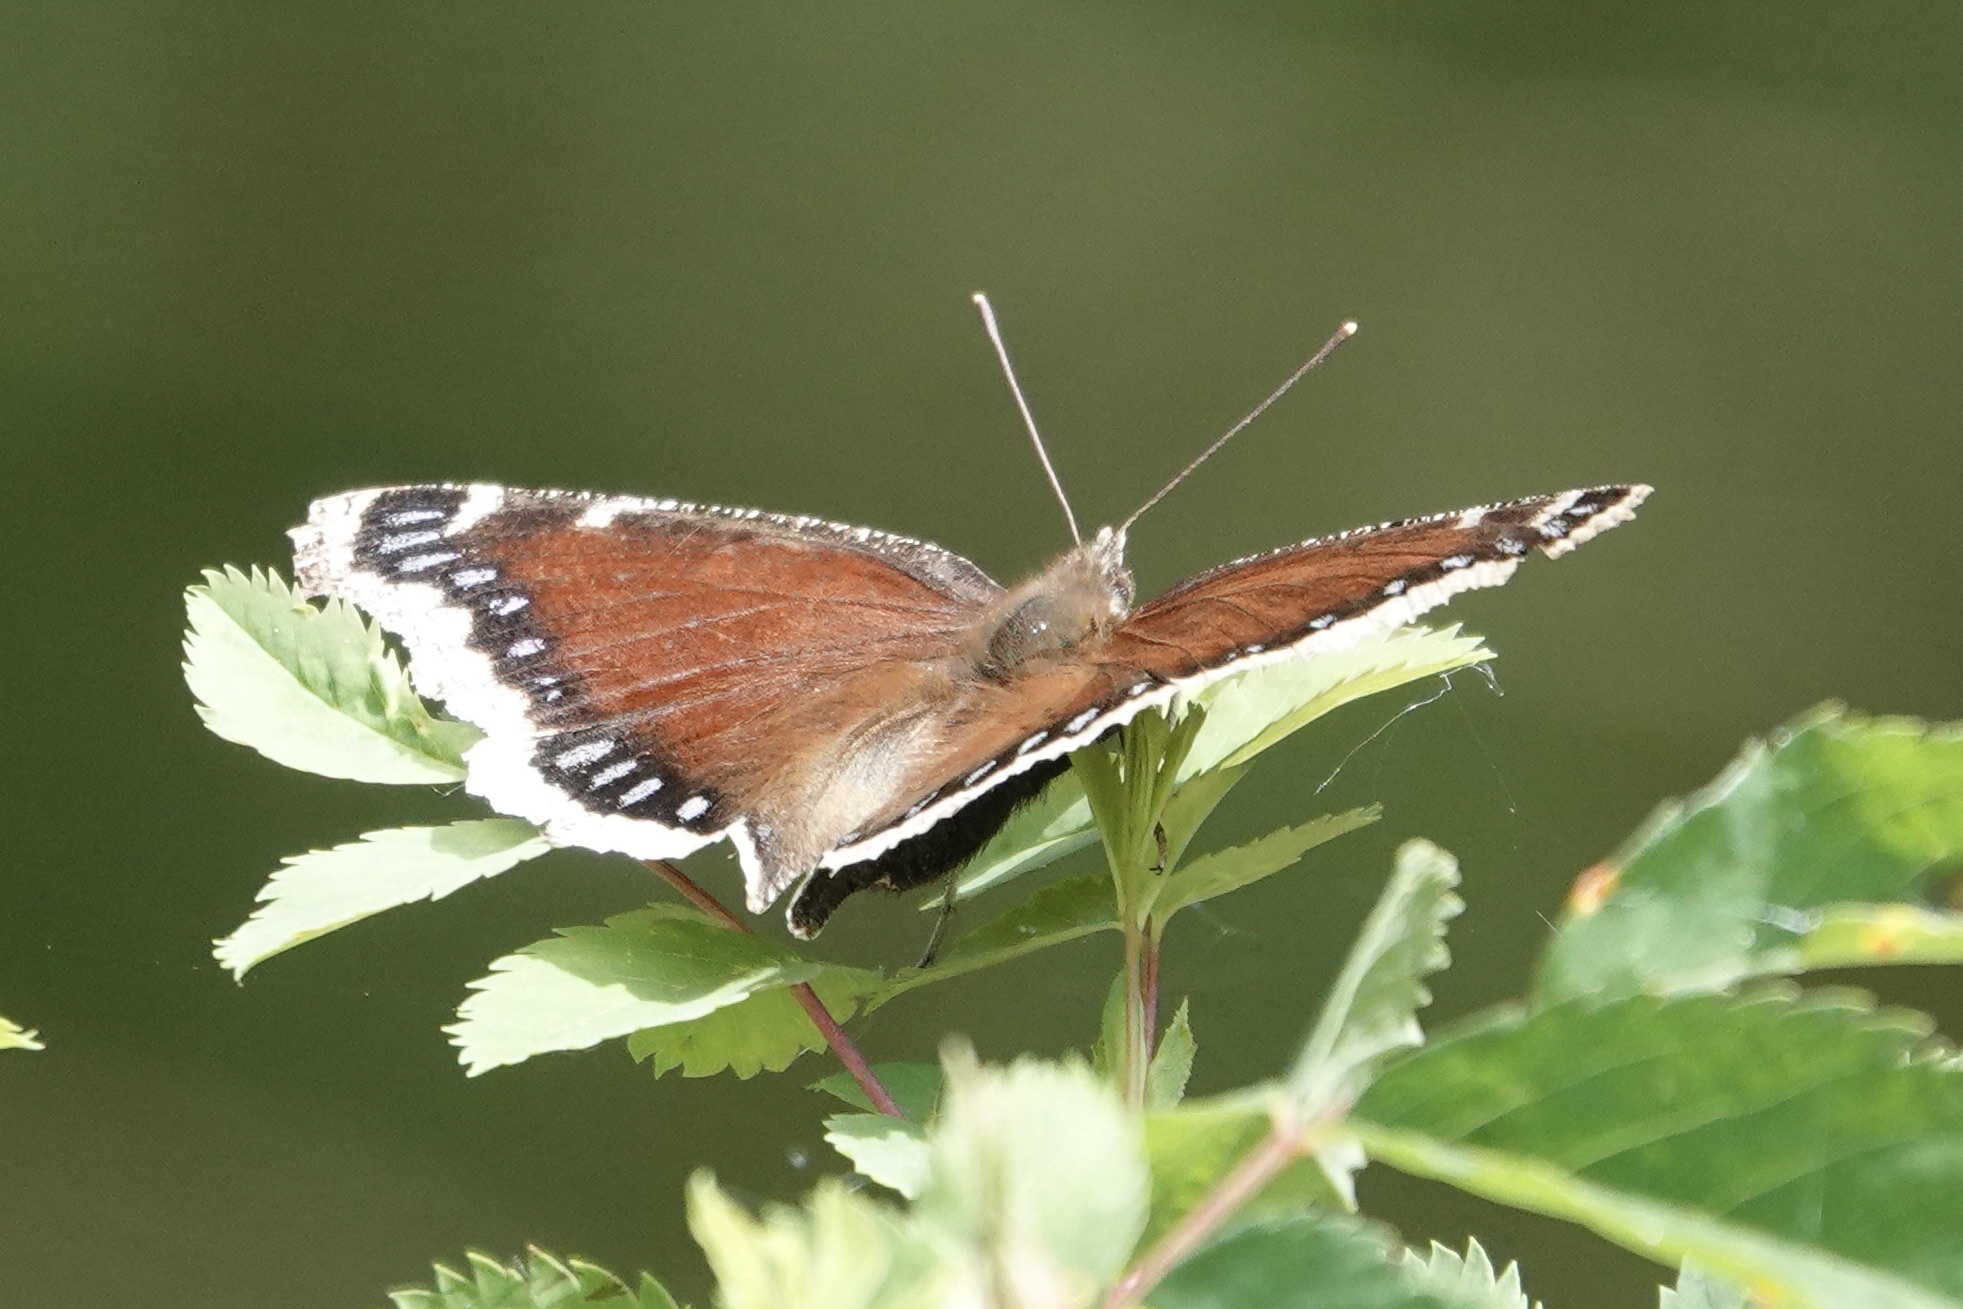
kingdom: Animalia
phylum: Arthropoda
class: Insecta
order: Lepidoptera
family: Nymphalidae
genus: Nymphalis
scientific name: Nymphalis antiopa
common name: Camberwell beauty
